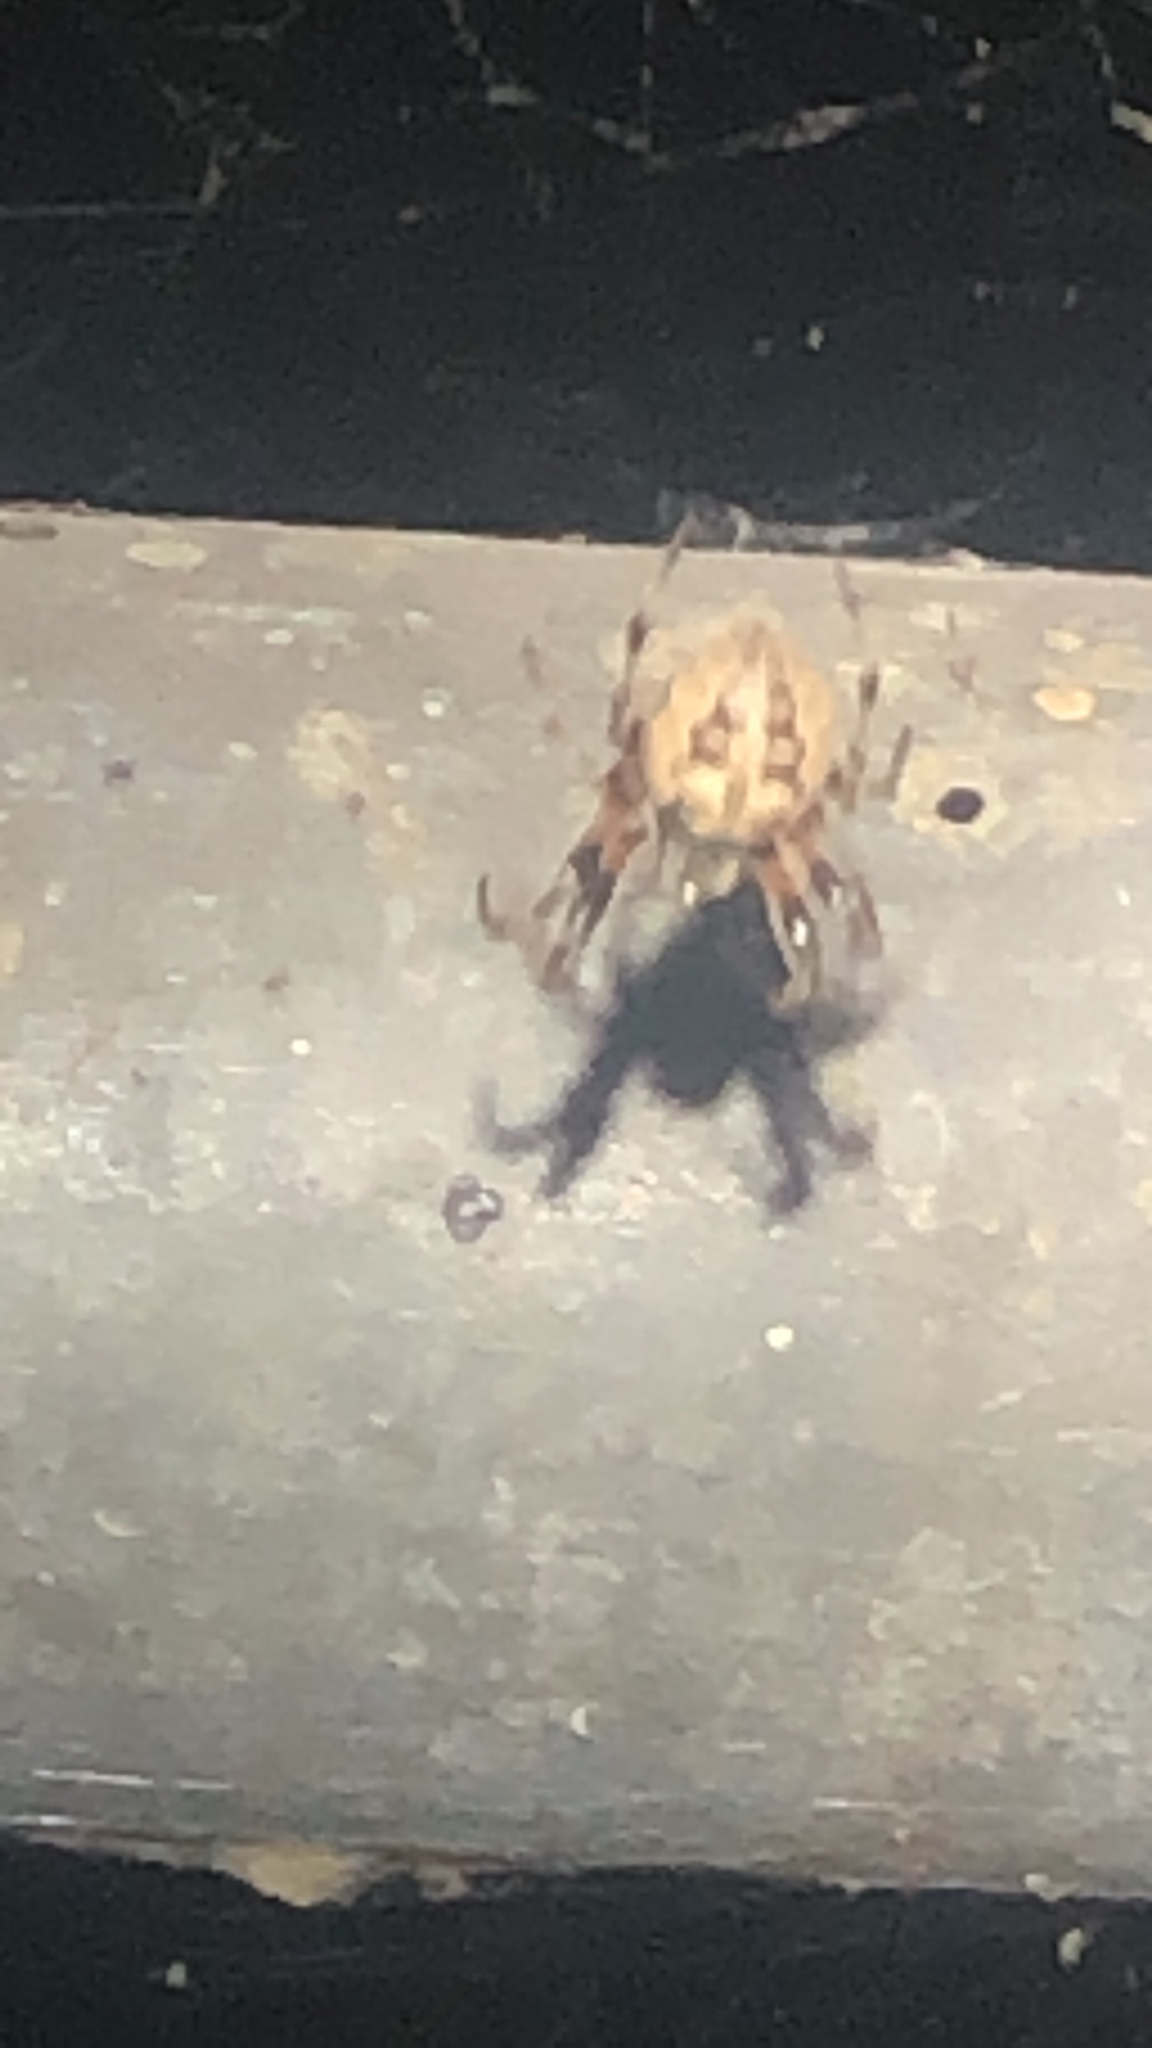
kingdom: Animalia
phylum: Arthropoda
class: Arachnida
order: Araneae
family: Araneidae
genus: Larinioides
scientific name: Larinioides cornutus
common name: Furrow orbweaver
